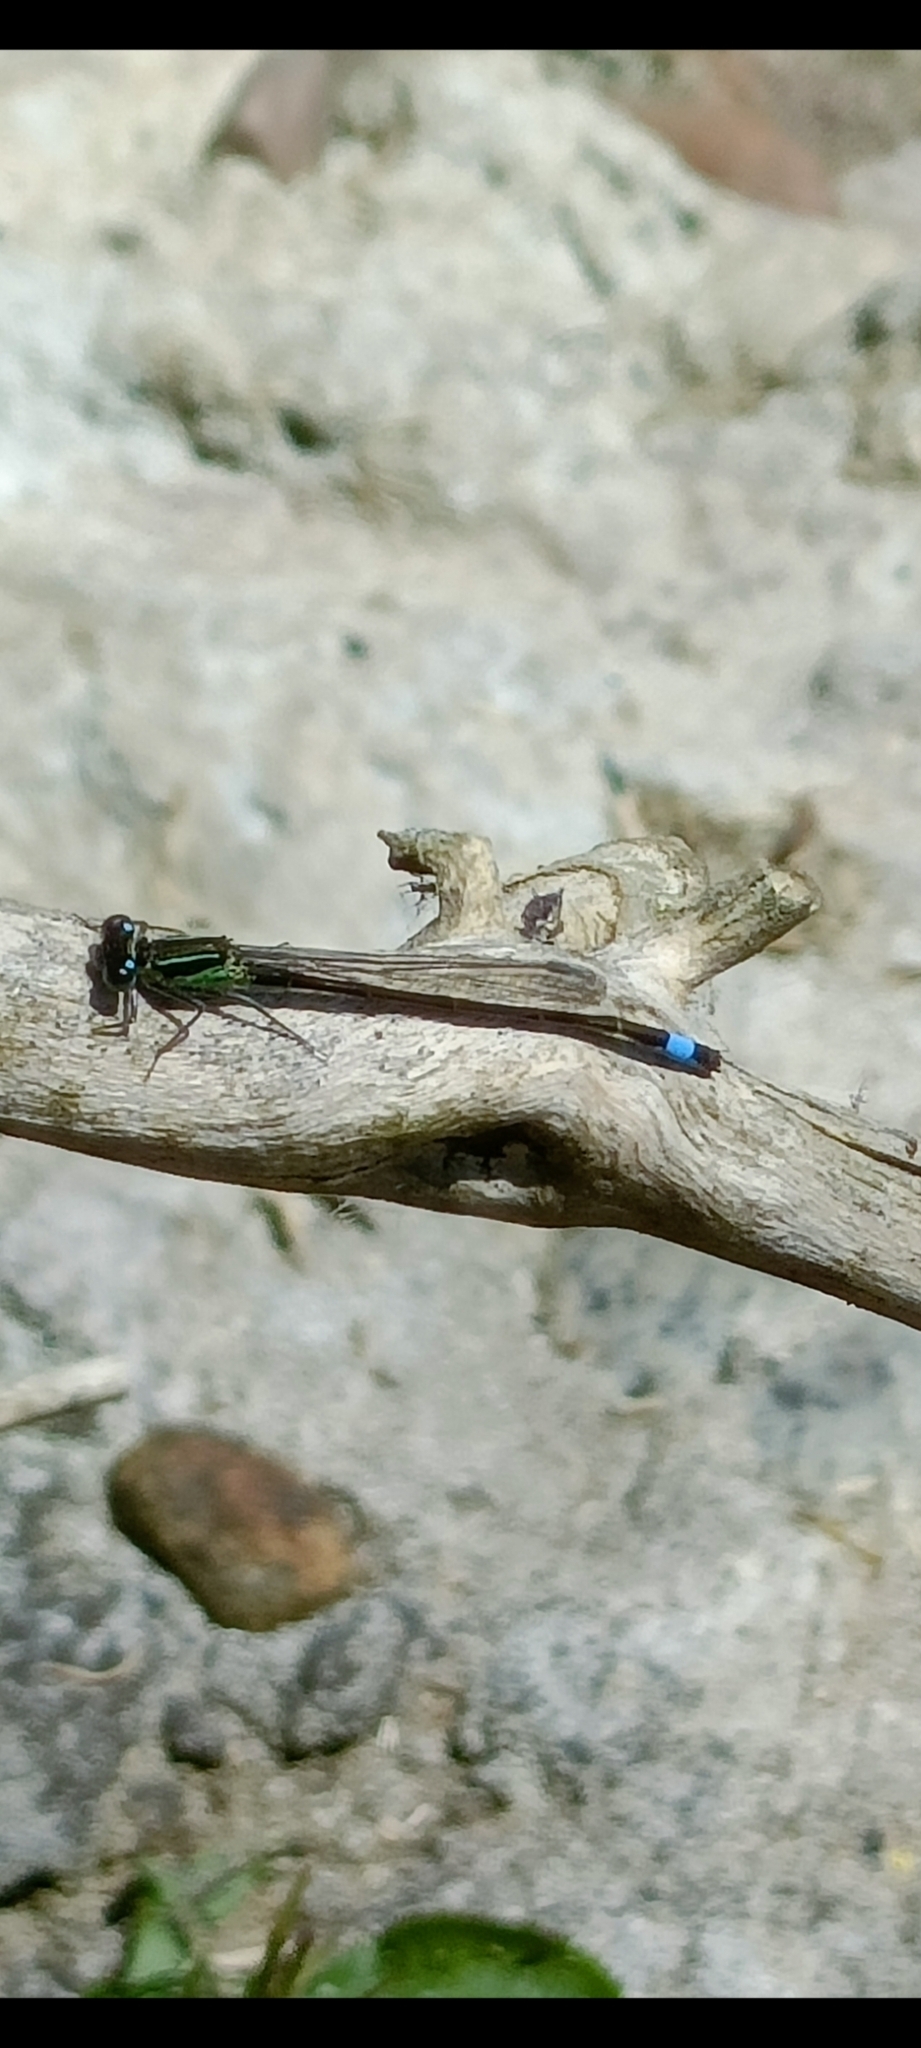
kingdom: Animalia
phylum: Arthropoda
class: Insecta
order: Odonata
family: Coenagrionidae
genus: Ischnura
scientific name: Ischnura elegans
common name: Blue-tailed damselfly
